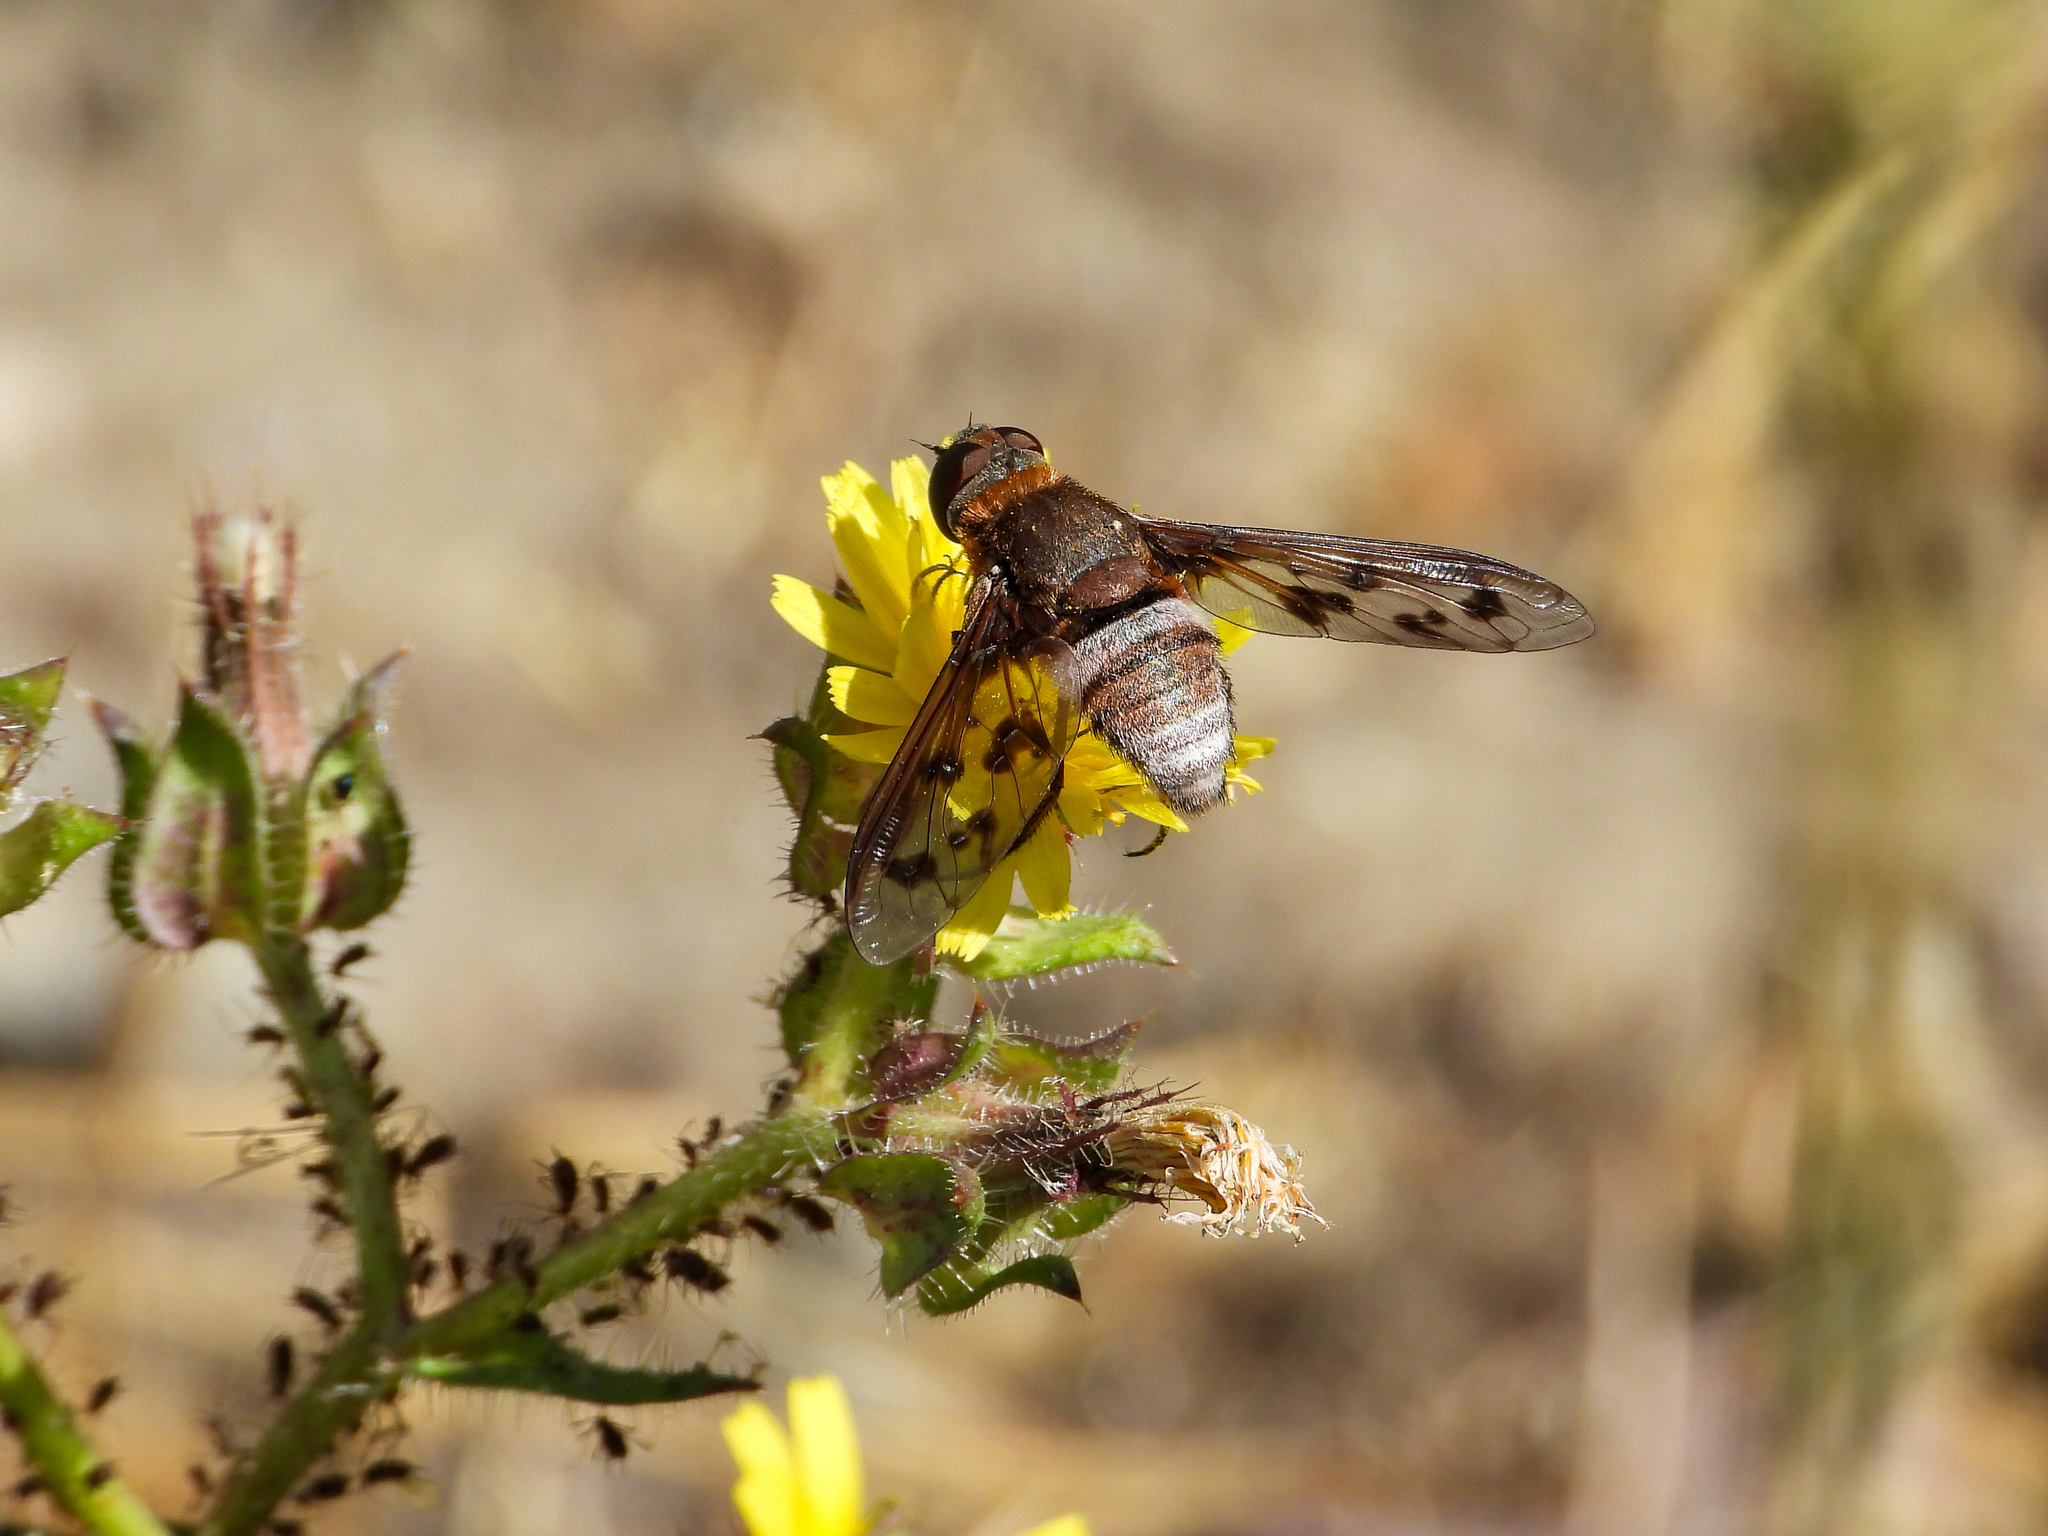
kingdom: Animalia
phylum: Arthropoda
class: Insecta
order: Diptera
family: Bombyliidae
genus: Nyia
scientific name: Nyia gazophylax
